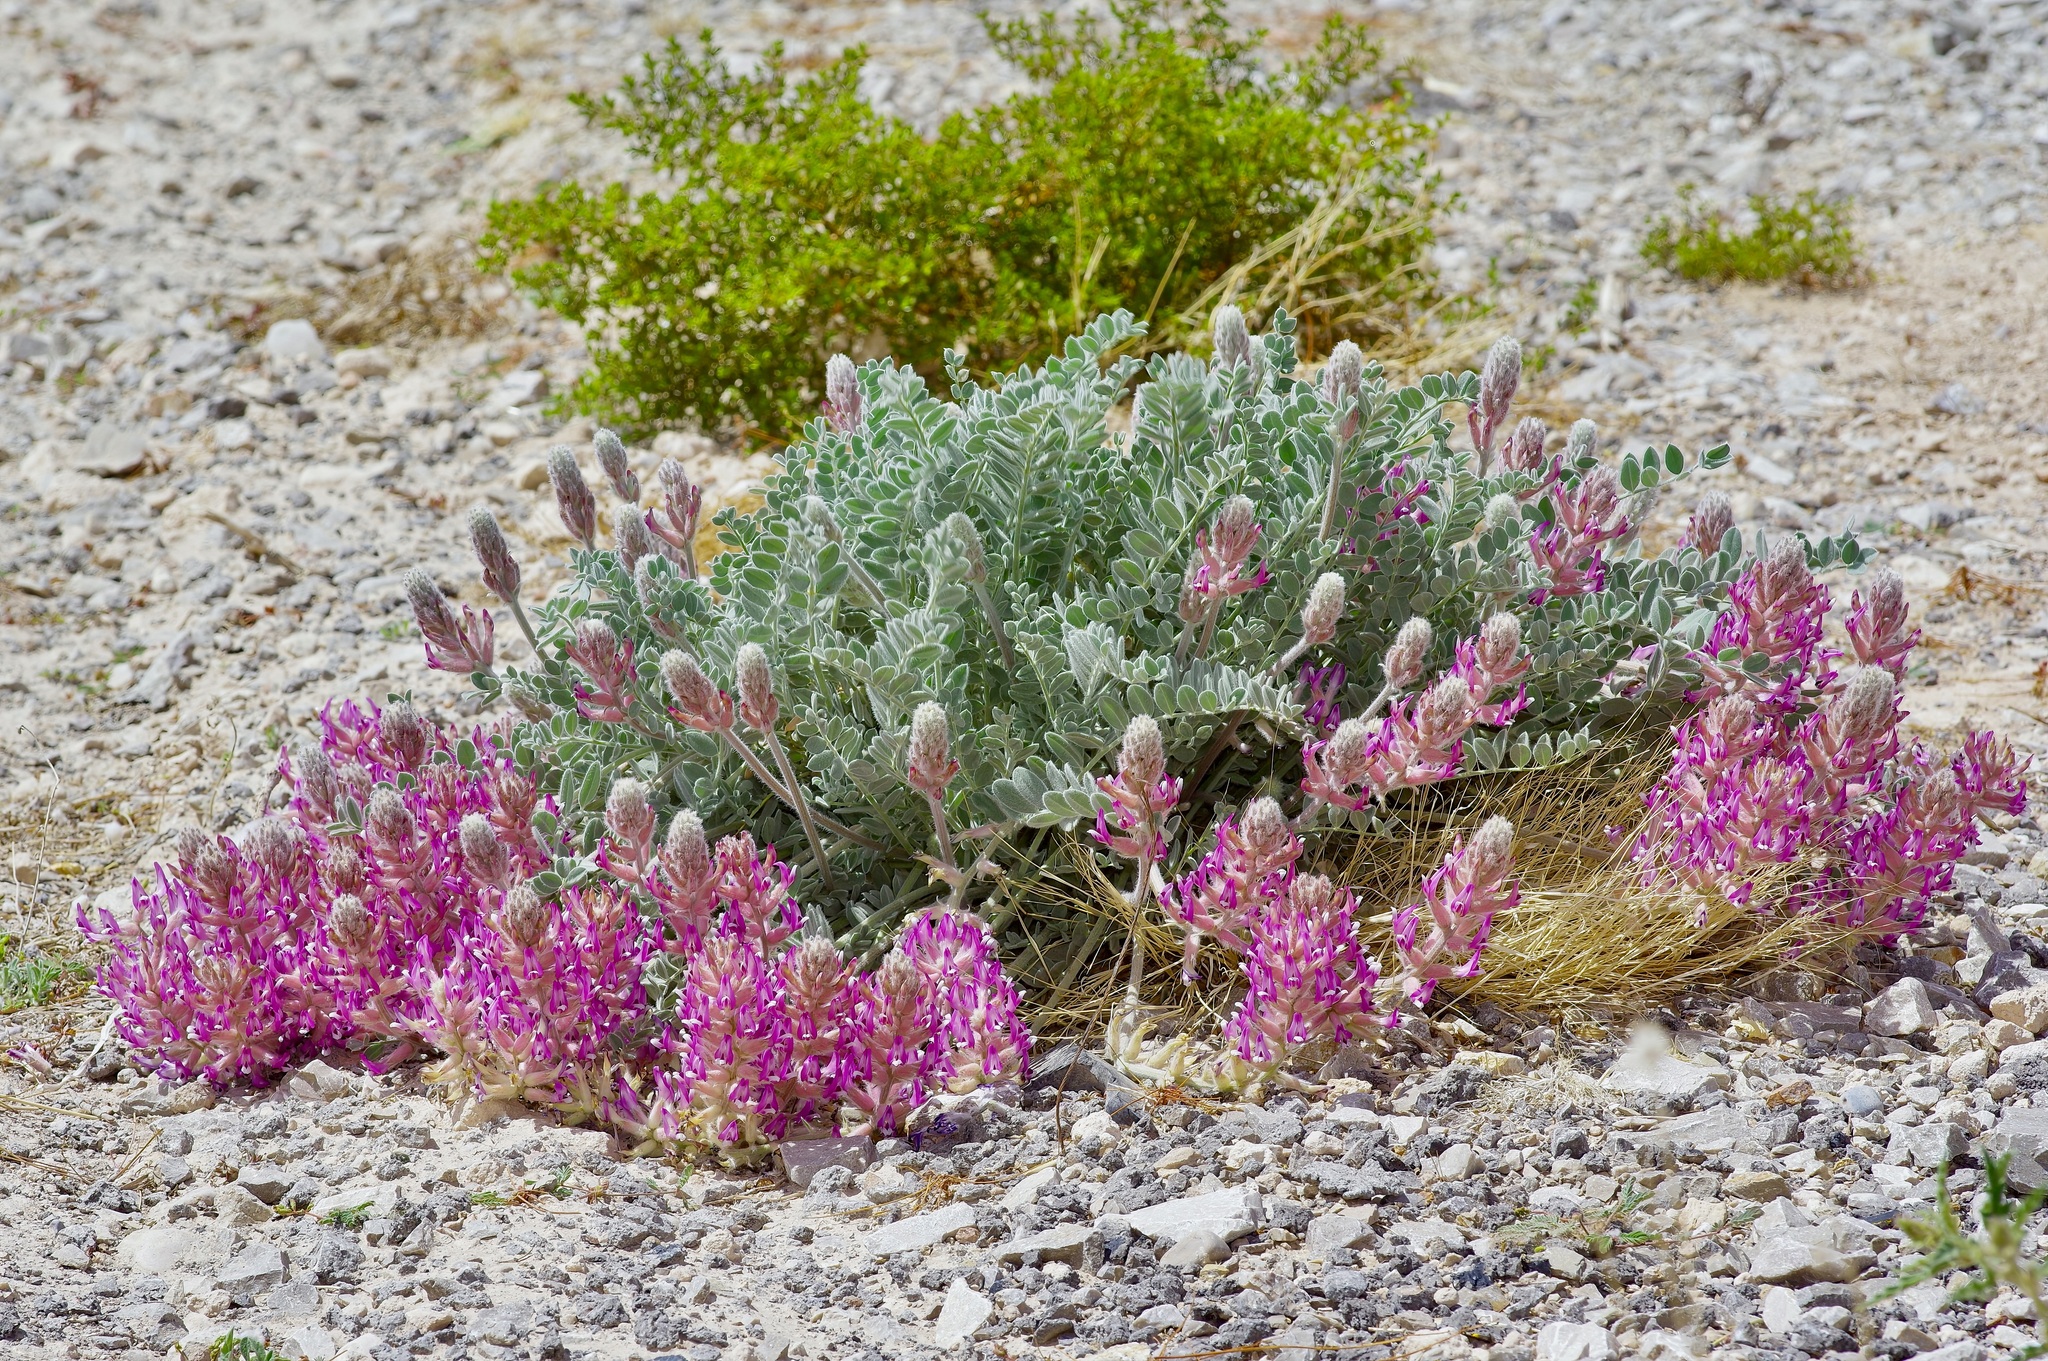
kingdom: Plantae
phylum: Tracheophyta
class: Magnoliopsida
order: Fabales
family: Fabaceae
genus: Astragalus
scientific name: Astragalus mollissimus
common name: Woolly locoweed
